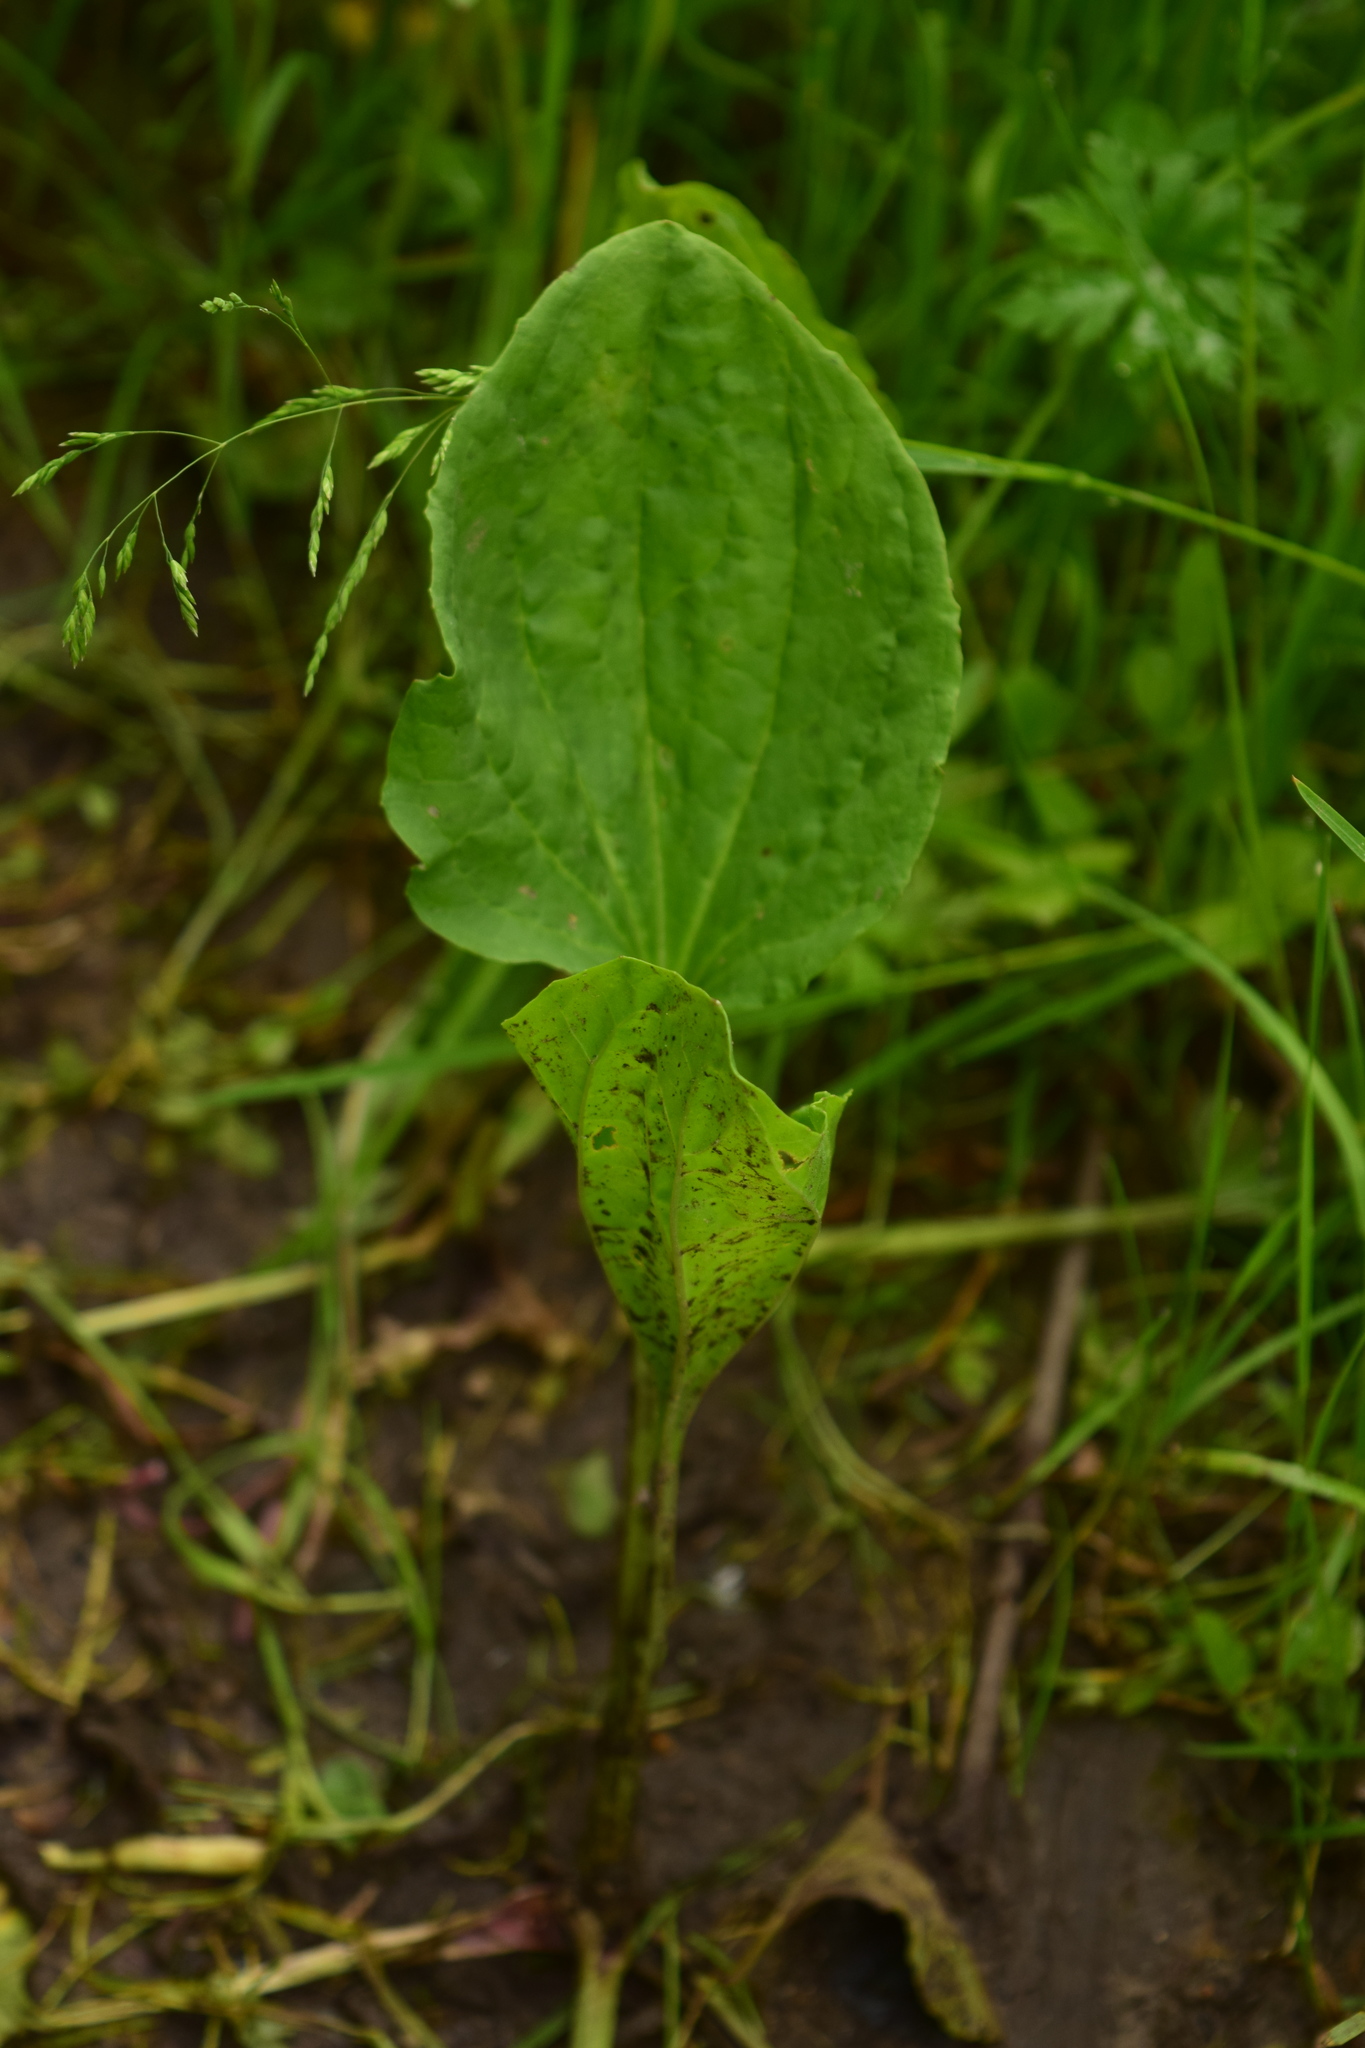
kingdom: Plantae
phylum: Tracheophyta
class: Magnoliopsida
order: Lamiales
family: Plantaginaceae
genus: Plantago
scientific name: Plantago major
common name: Common plantain
